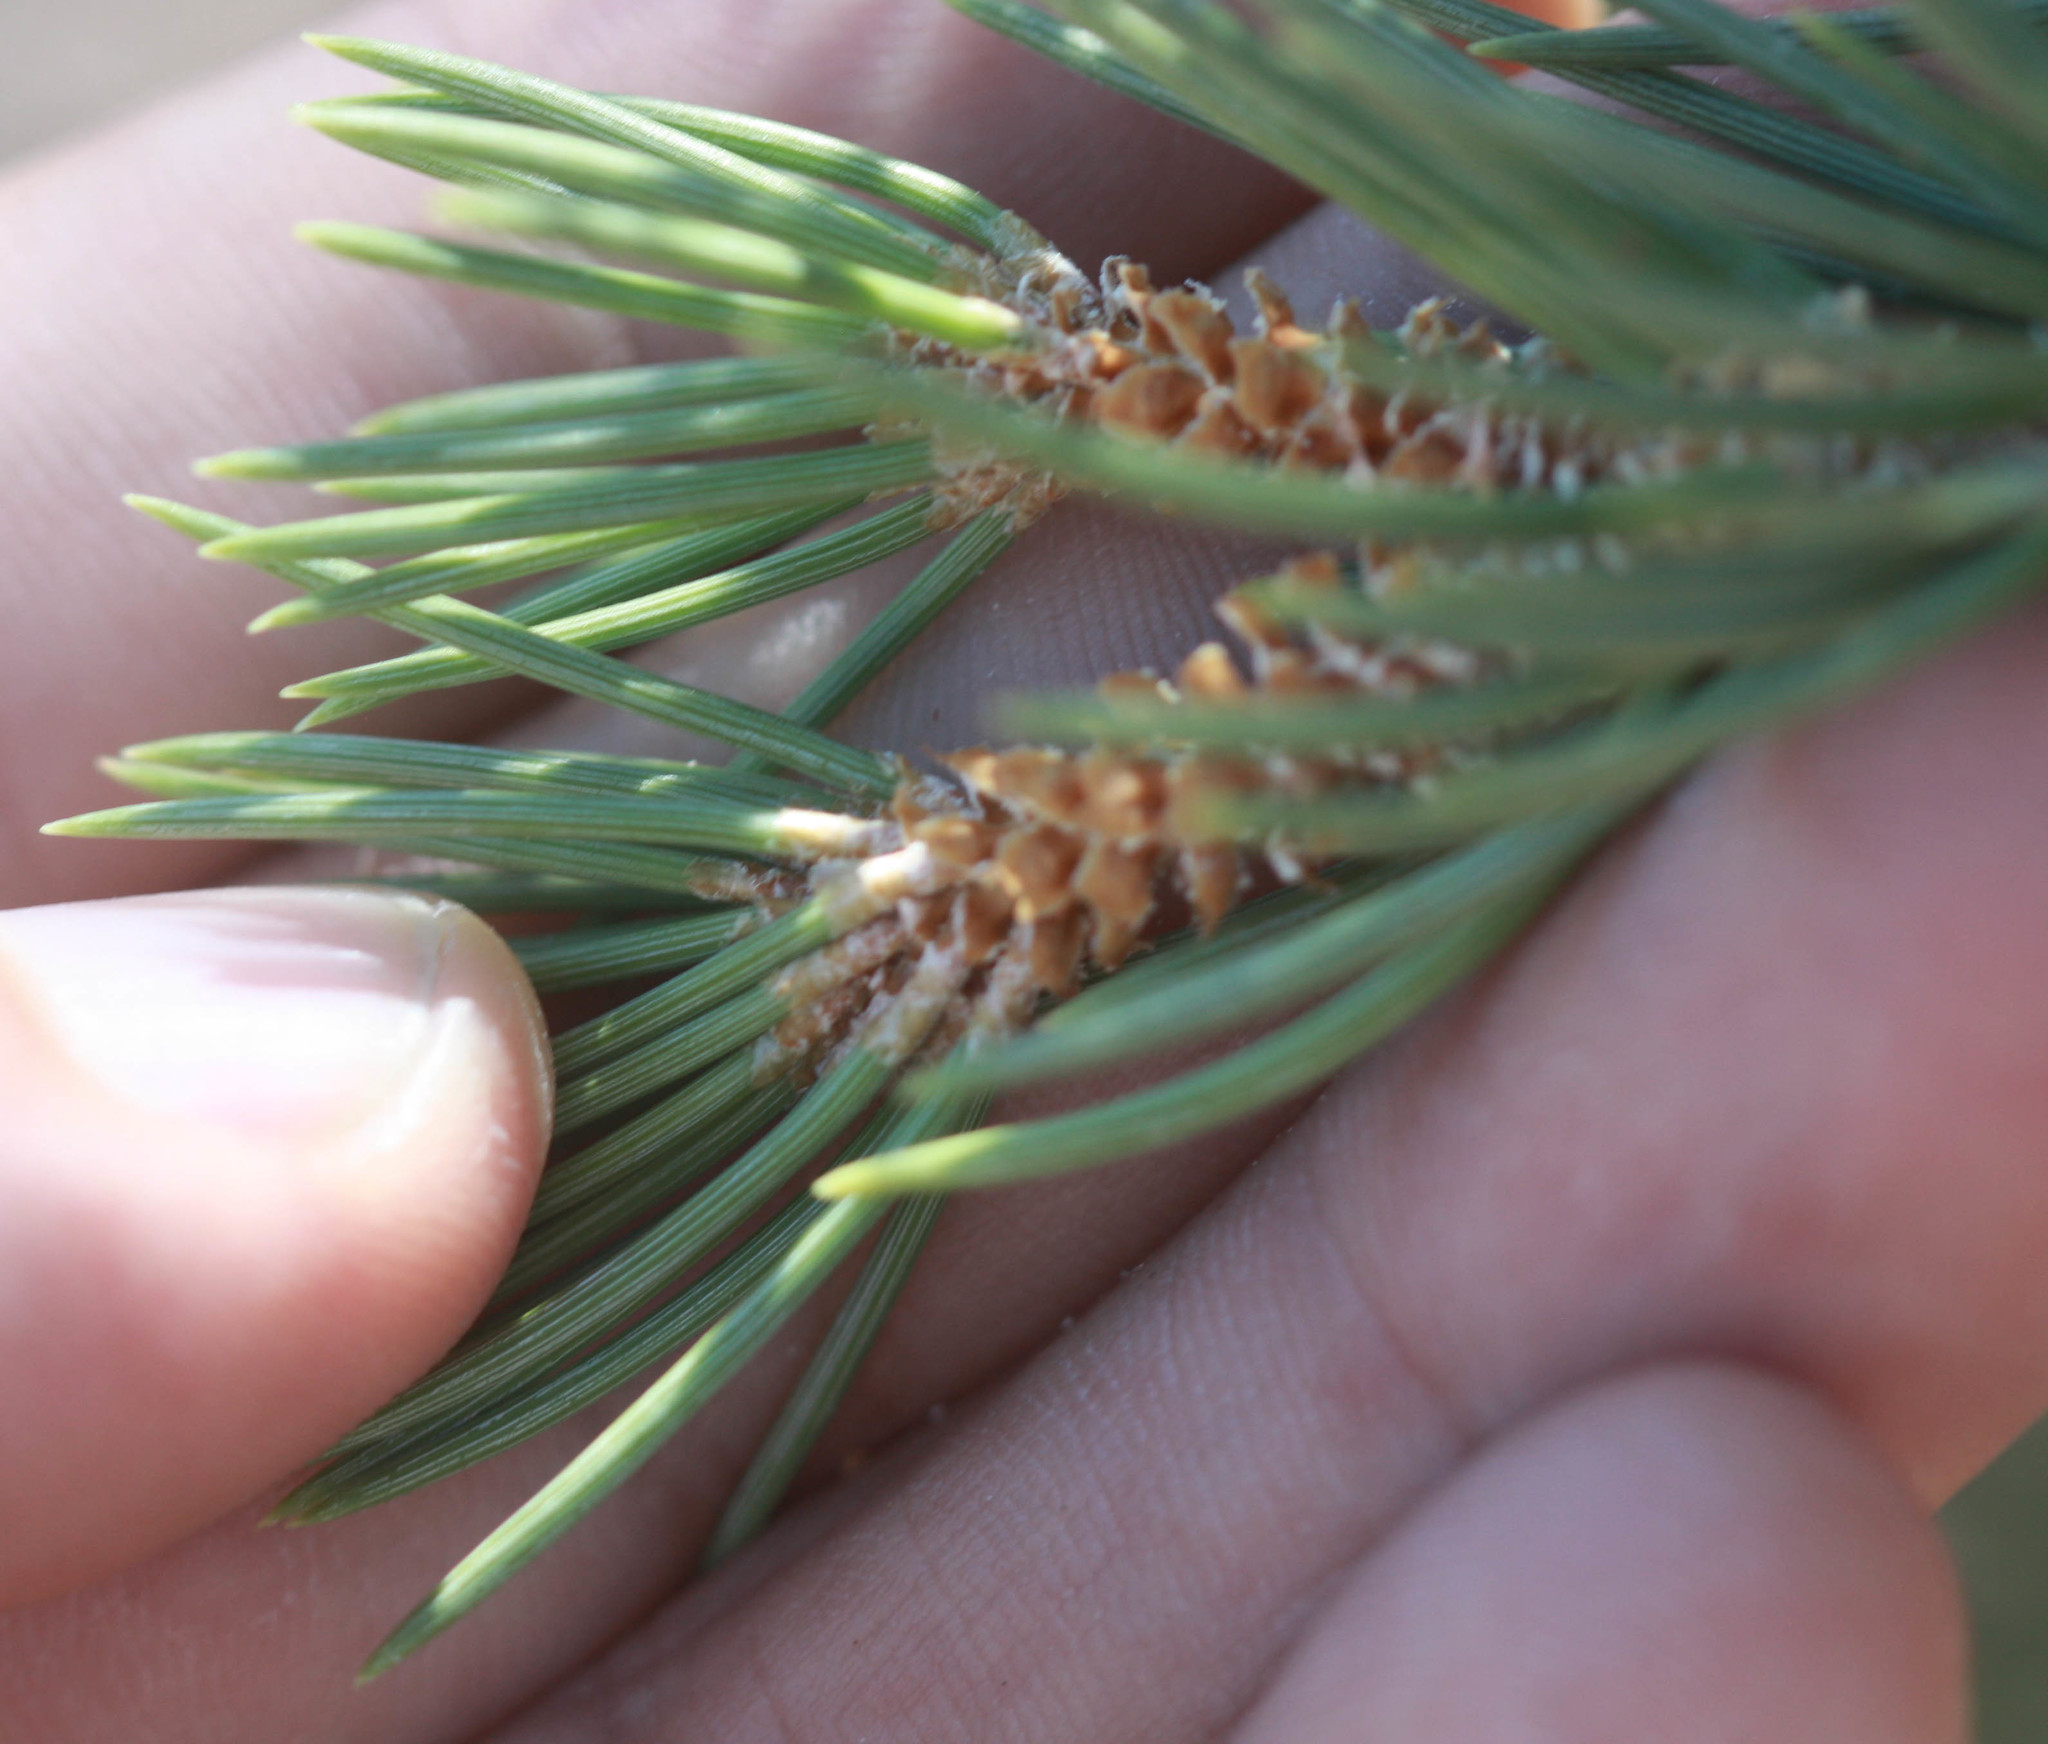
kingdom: Plantae
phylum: Tracheophyta
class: Pinopsida
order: Pinales
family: Pinaceae
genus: Pinus
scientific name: Pinus monophylla
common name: One-leaved nut pine
